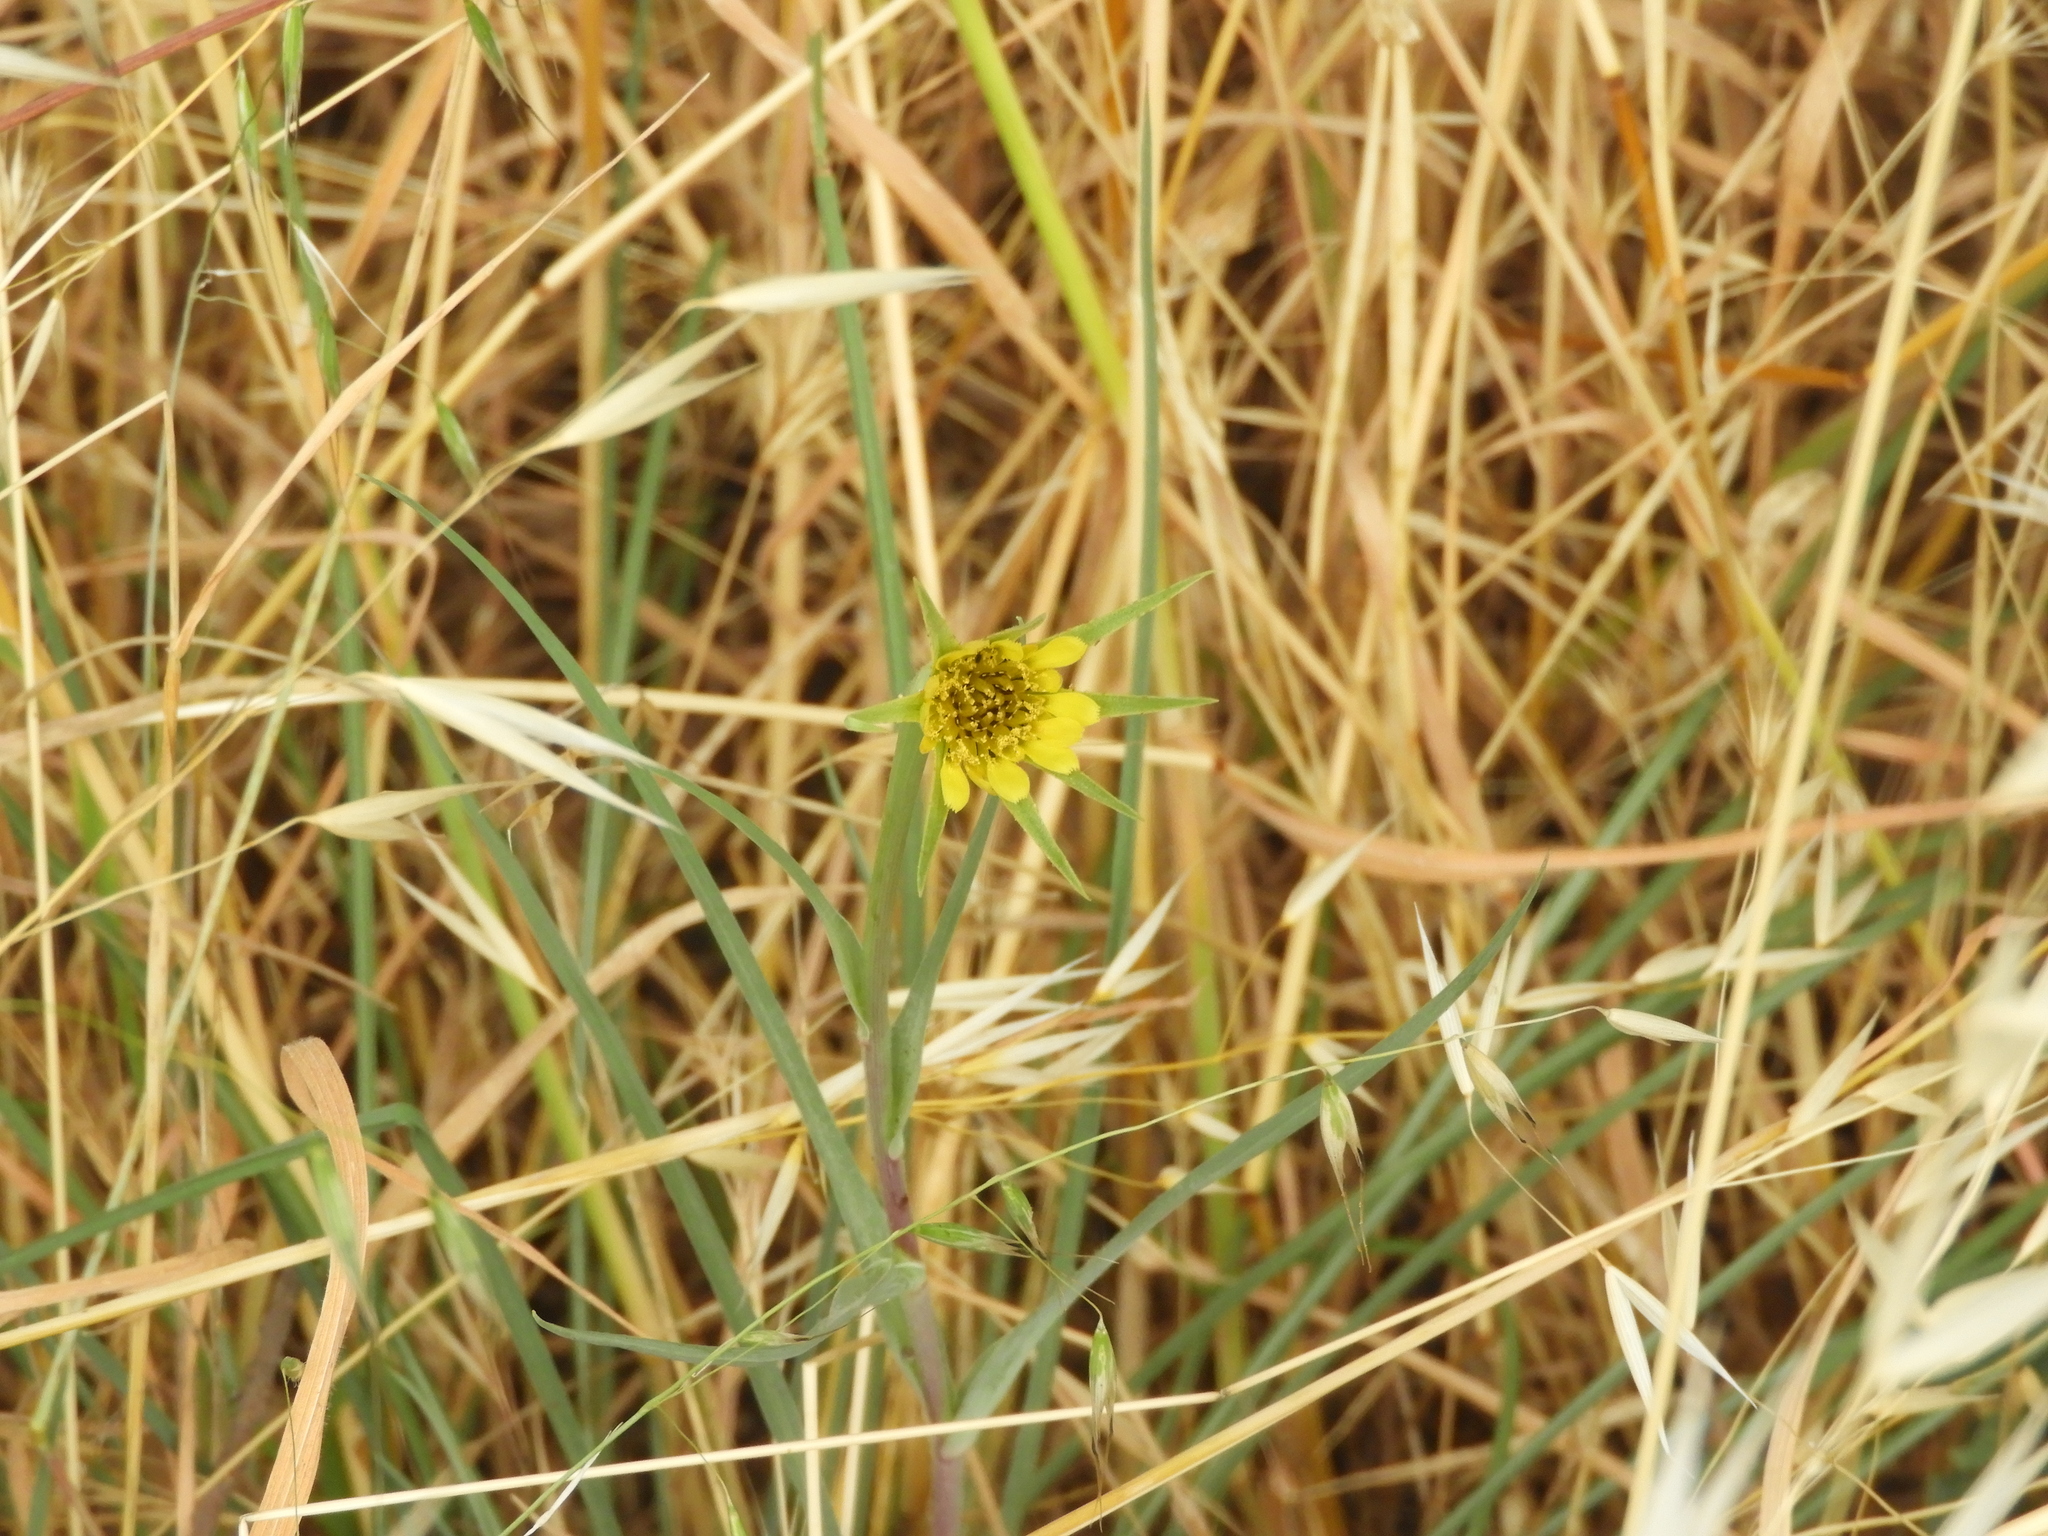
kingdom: Plantae
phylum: Tracheophyta
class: Magnoliopsida
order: Asterales
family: Asteraceae
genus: Tragopogon
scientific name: Tragopogon dubius
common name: Yellow salsify
